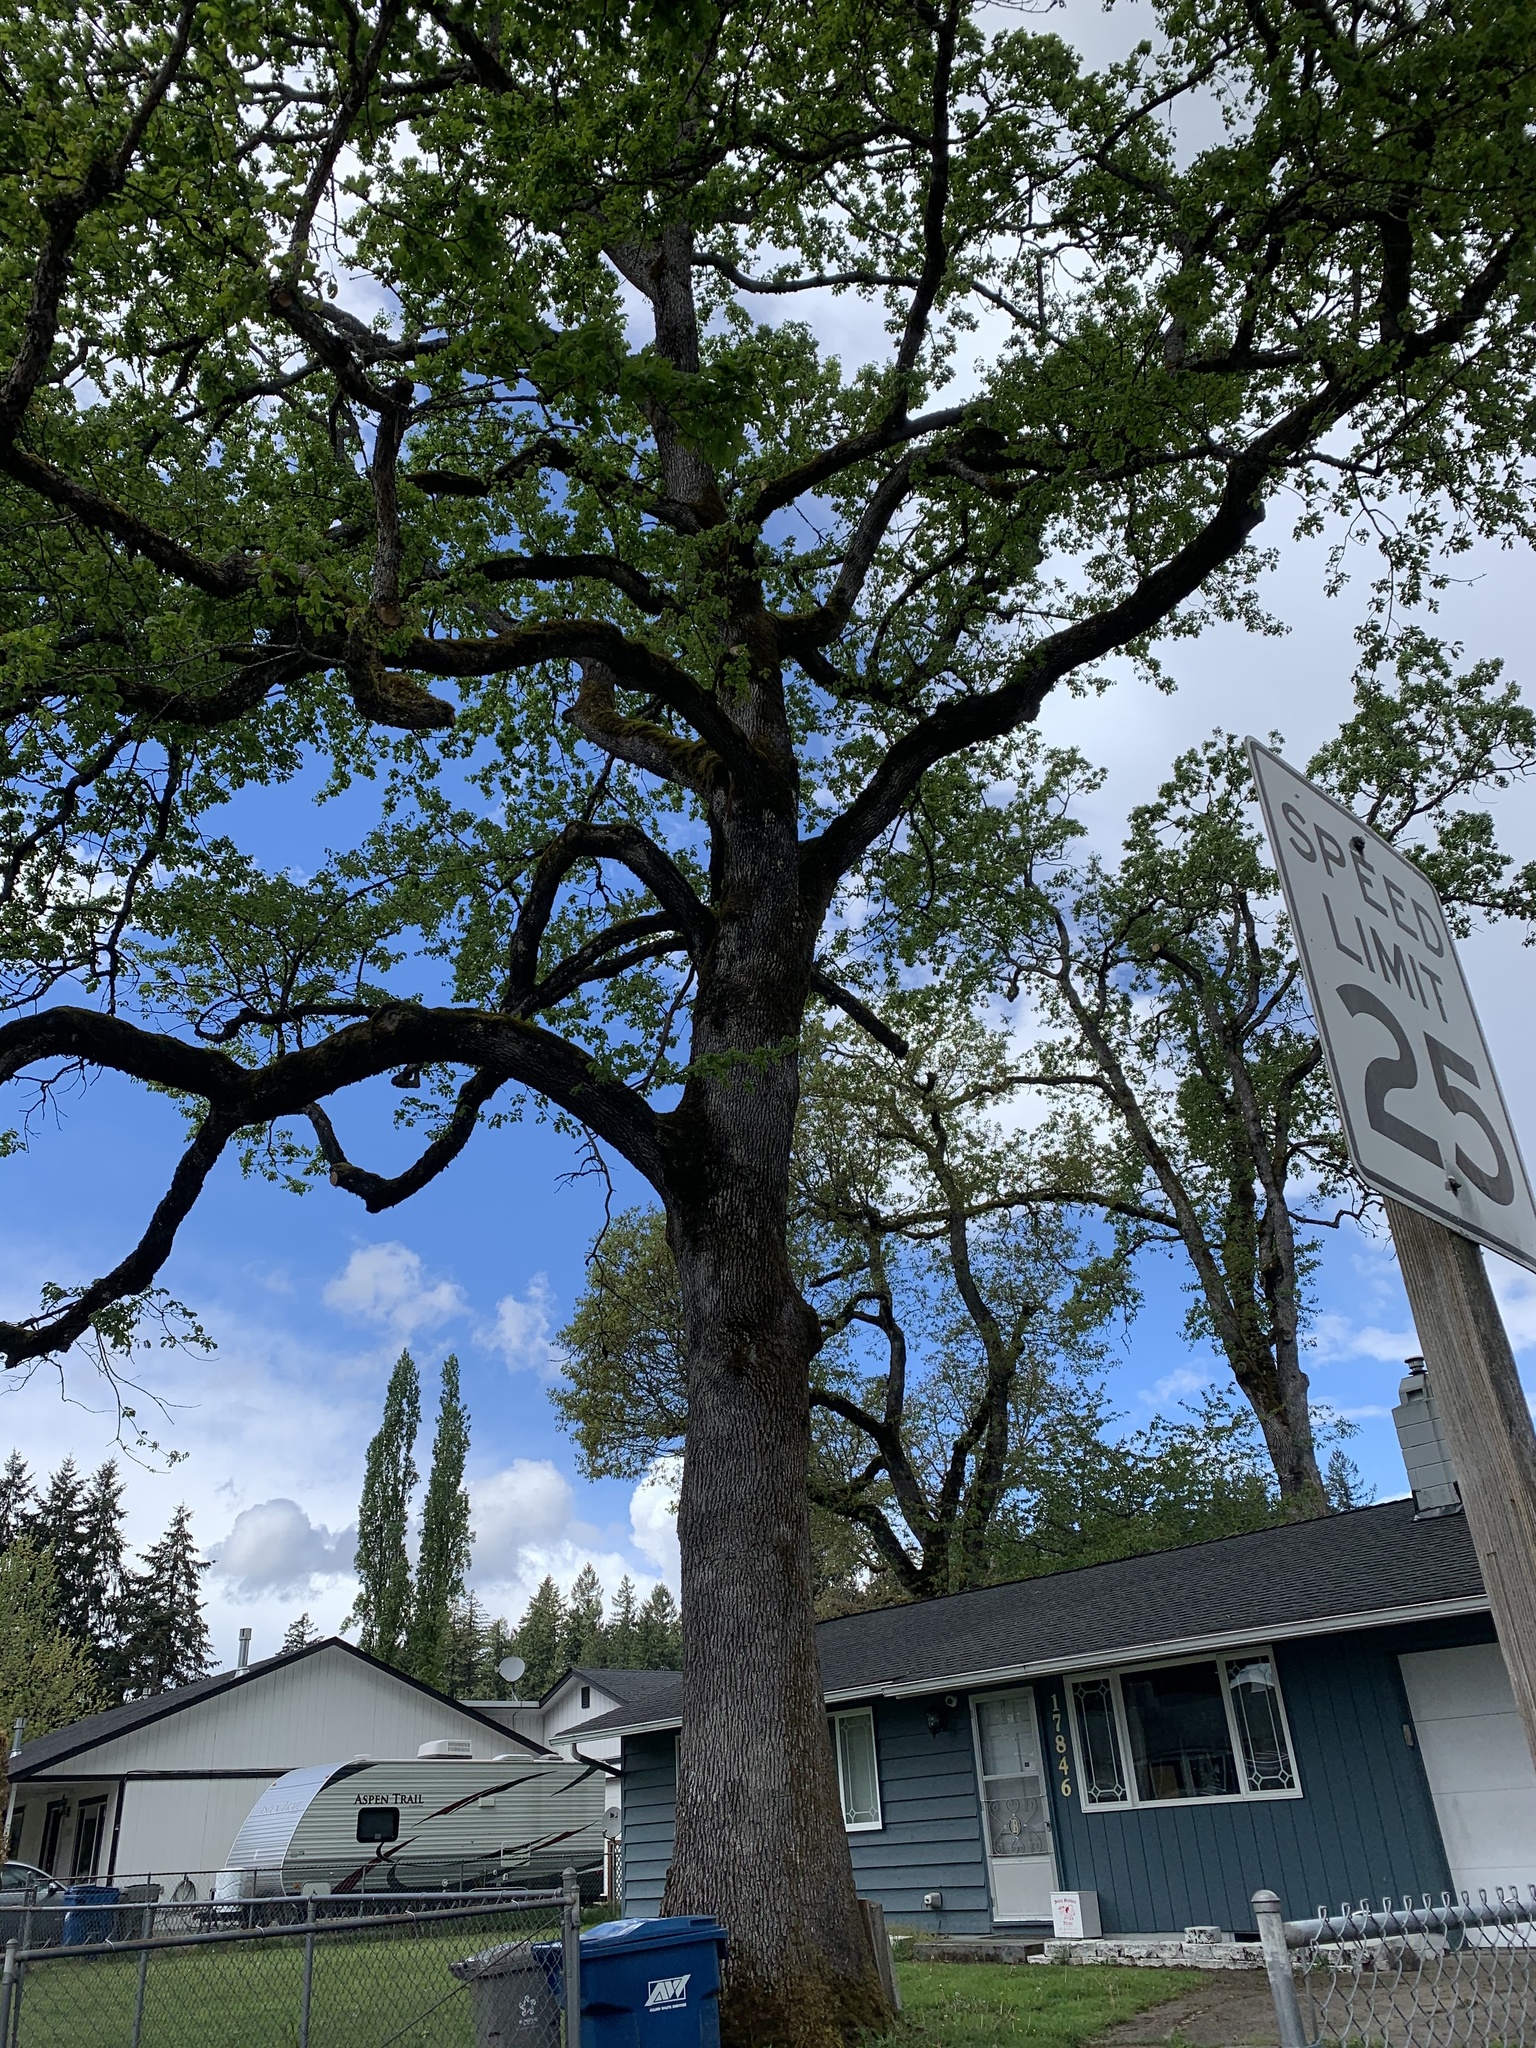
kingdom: Plantae
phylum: Tracheophyta
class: Magnoliopsida
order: Fagales
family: Fagaceae
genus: Quercus
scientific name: Quercus garryana
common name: Garry oak
